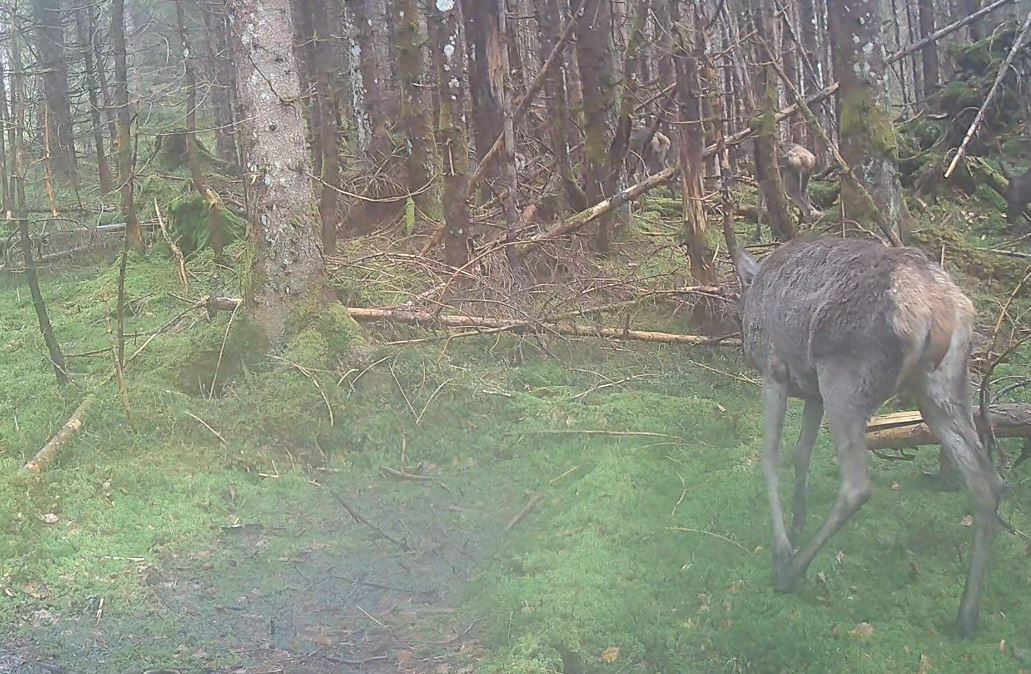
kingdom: Animalia
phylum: Chordata
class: Mammalia
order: Artiodactyla
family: Cervidae
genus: Cervus
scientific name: Cervus elaphus
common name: Red deer
